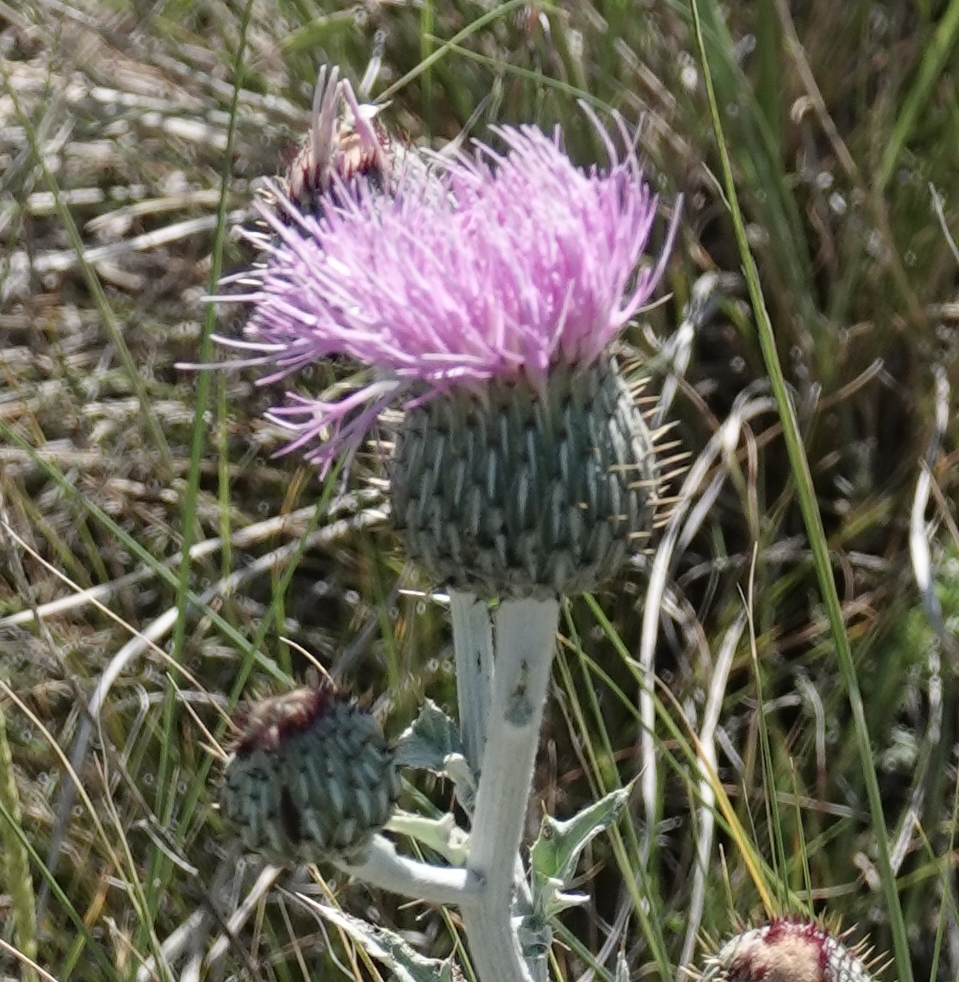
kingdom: Plantae
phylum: Tracheophyta
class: Magnoliopsida
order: Asterales
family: Asteraceae
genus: Cirsium
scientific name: Cirsium undulatum
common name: Pasture thistle
